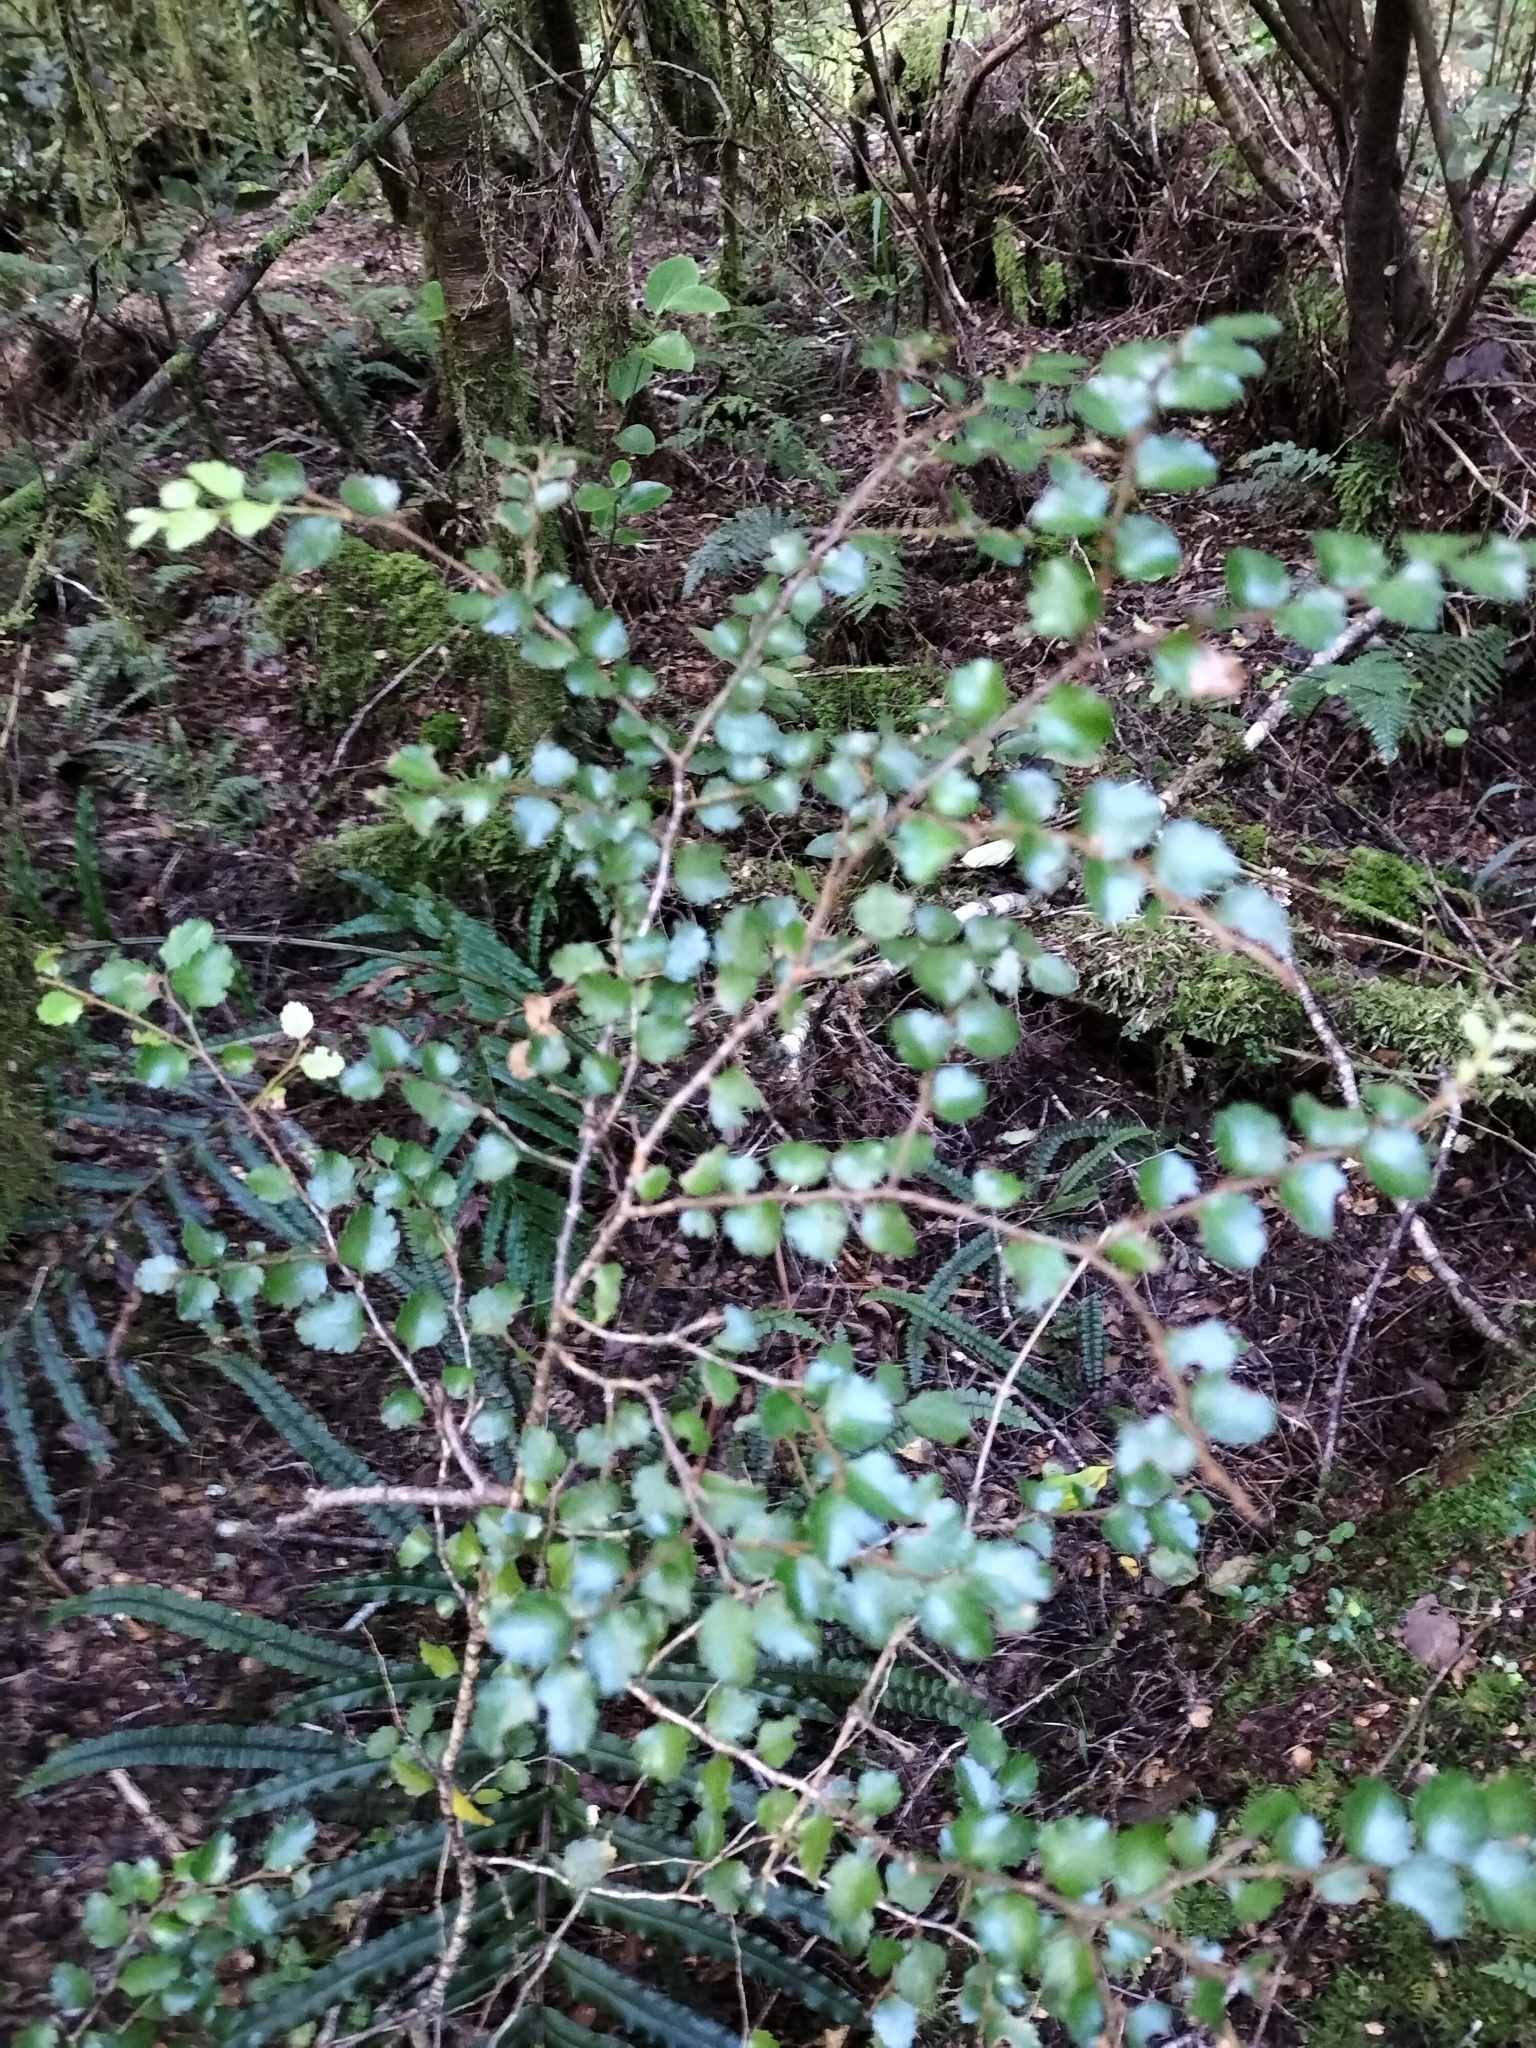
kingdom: Plantae
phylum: Tracheophyta
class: Magnoliopsida
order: Fagales
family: Nothofagaceae
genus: Nothofagus
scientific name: Nothofagus menziesii
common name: Silver beech
